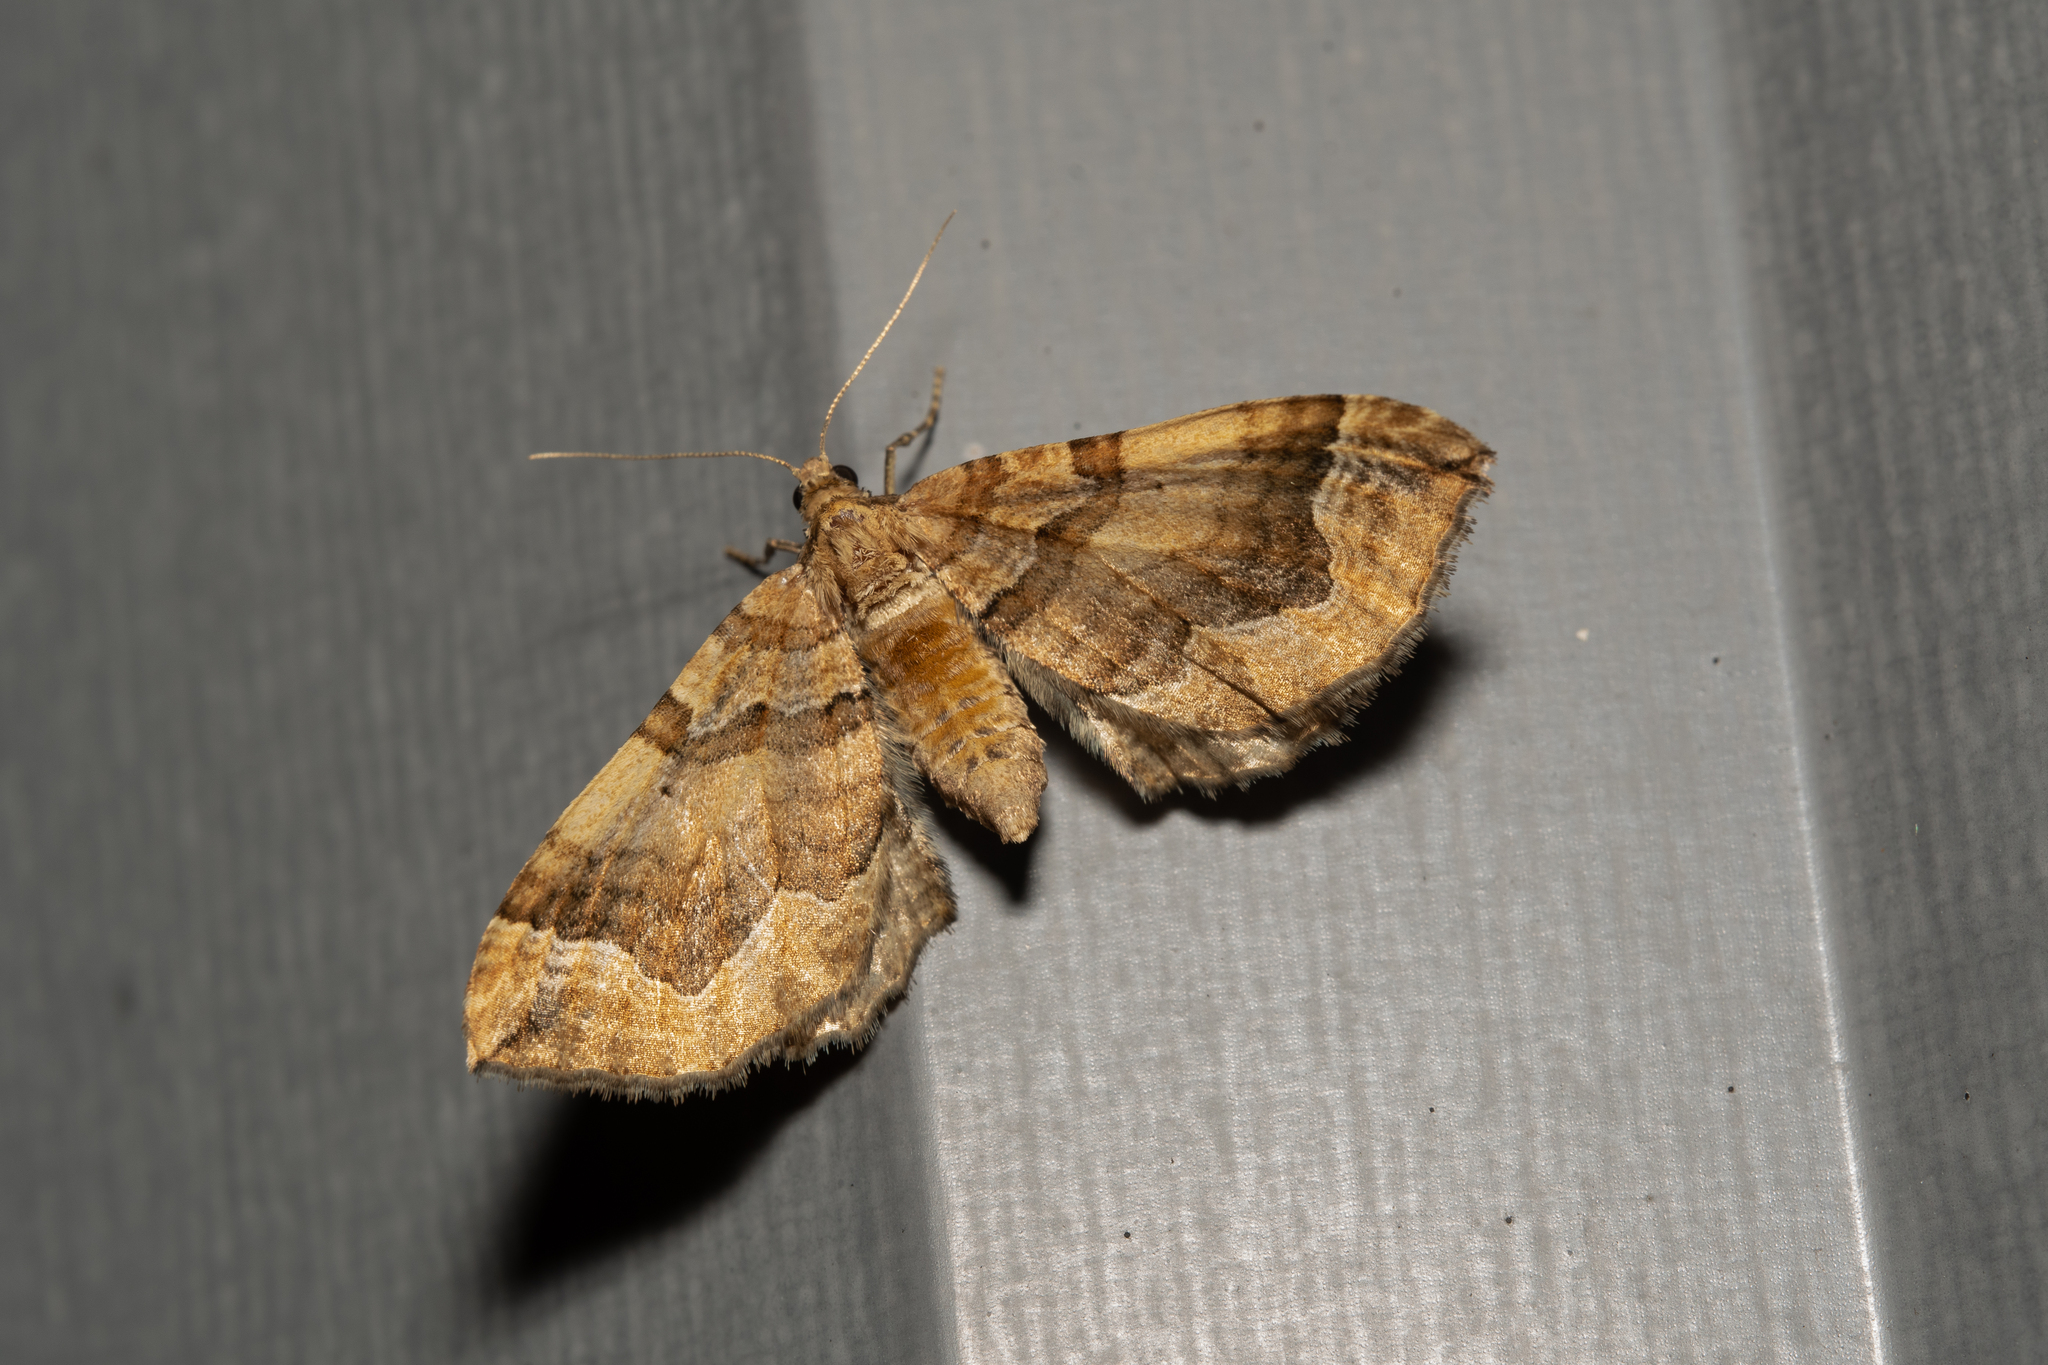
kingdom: Animalia
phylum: Arthropoda
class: Insecta
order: Lepidoptera
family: Geometridae
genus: Pelurga
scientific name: Pelurga comitata
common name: Dark spinach
